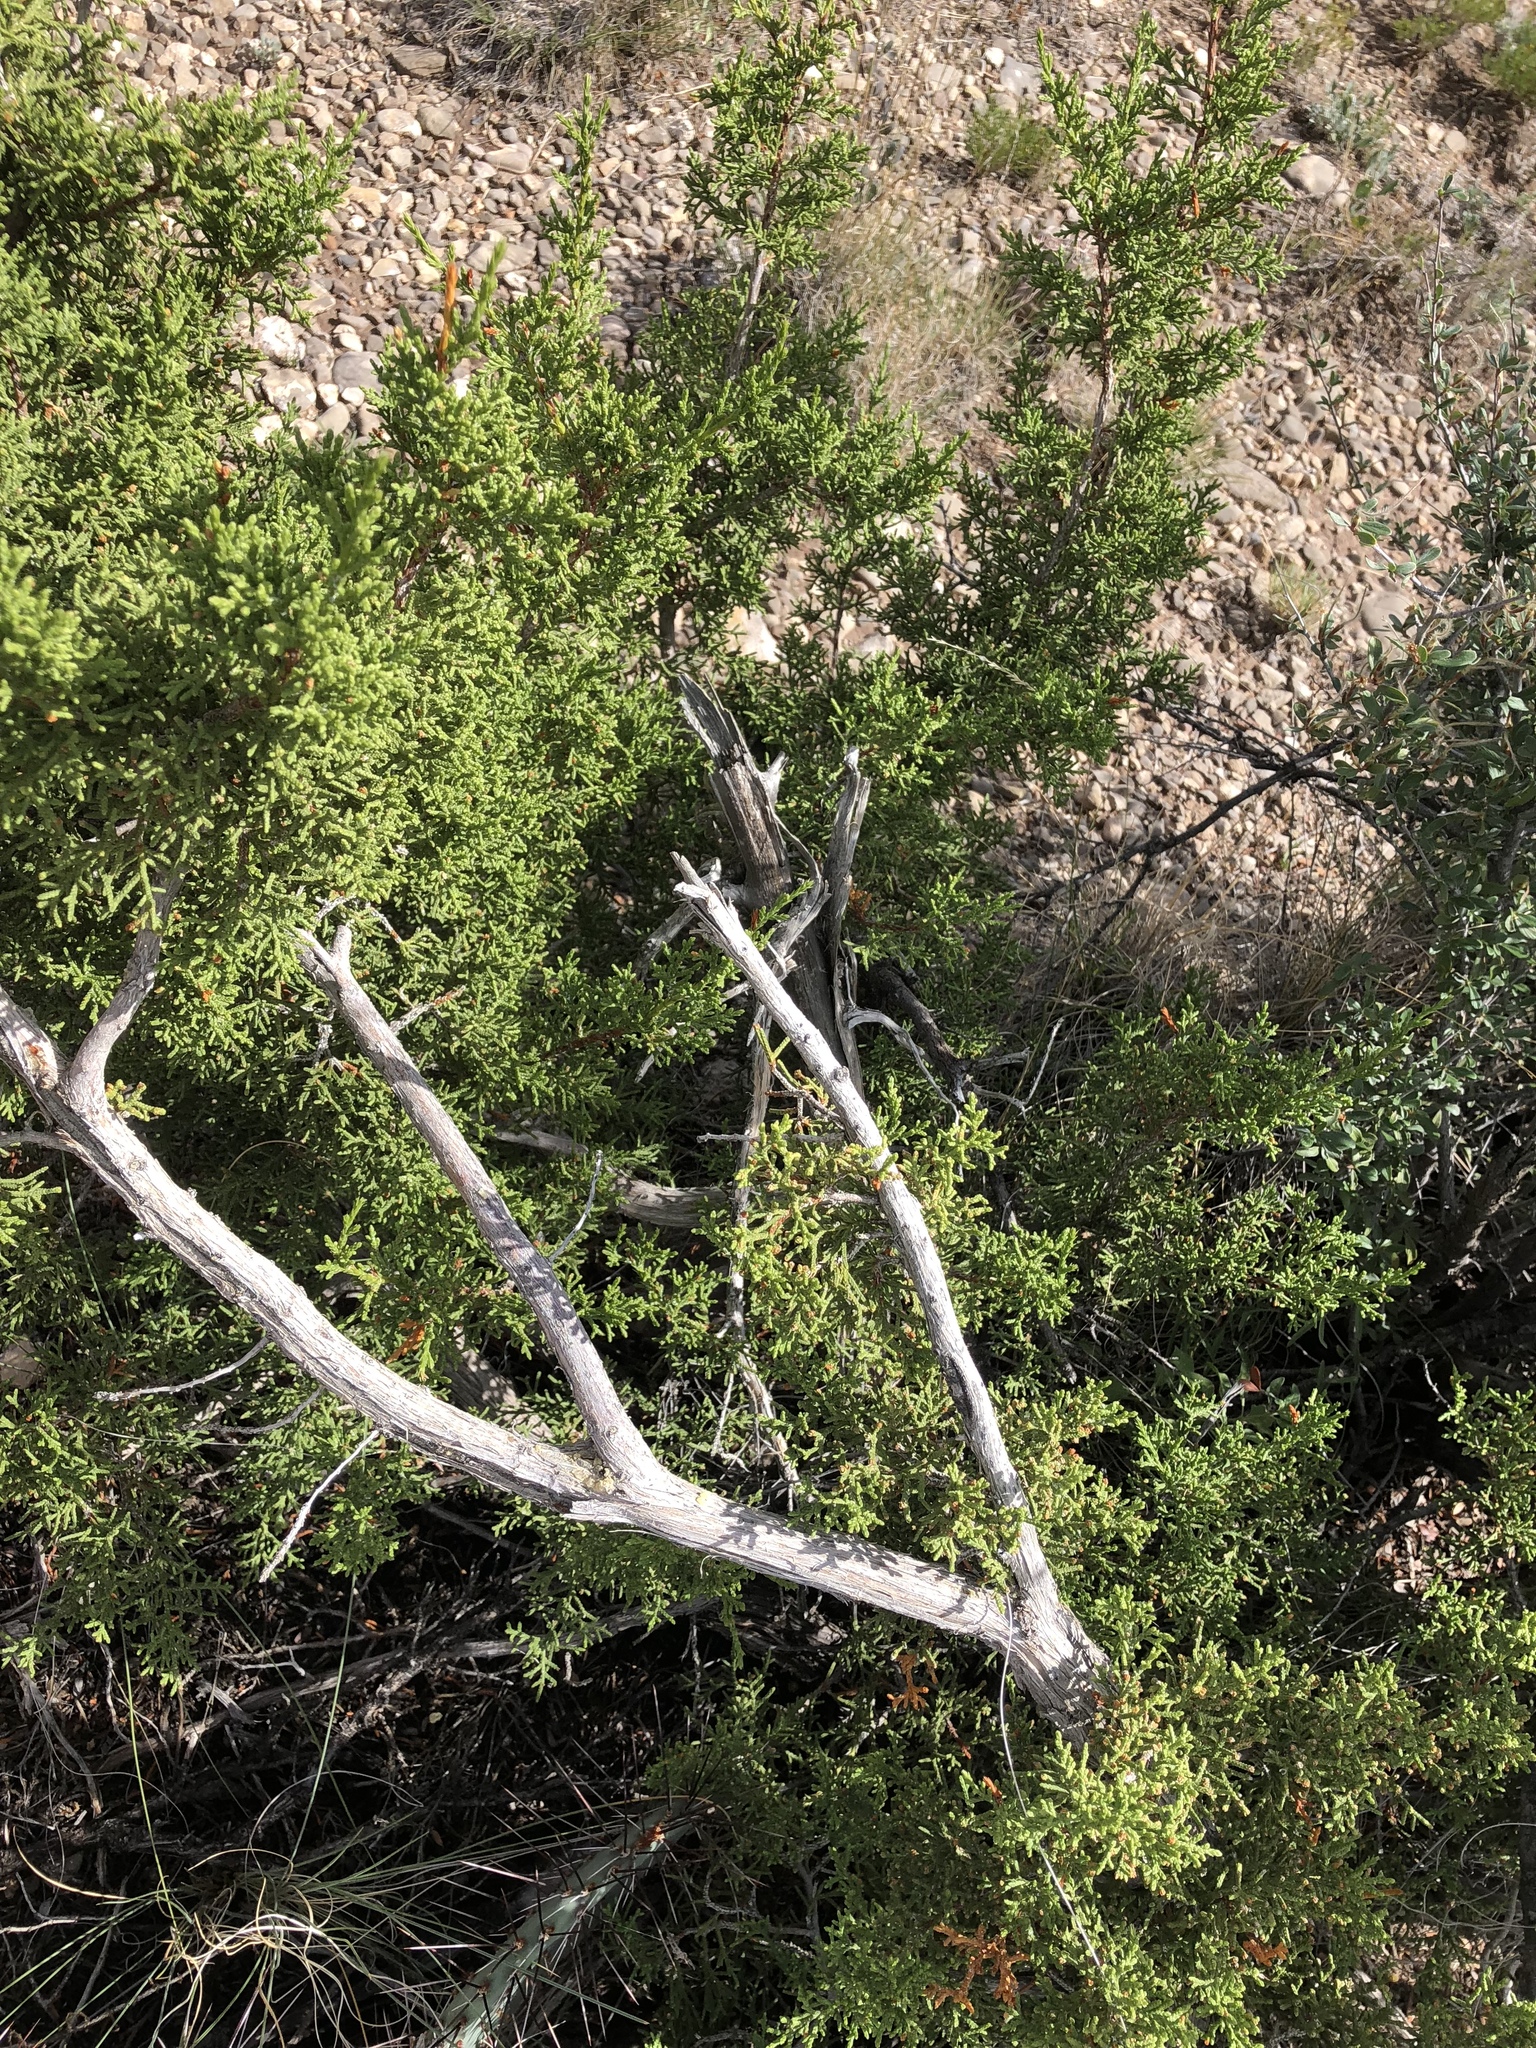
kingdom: Plantae
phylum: Tracheophyta
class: Pinopsida
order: Pinales
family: Cupressaceae
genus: Juniperus
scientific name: Juniperus monosperma
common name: One-seed juniper
